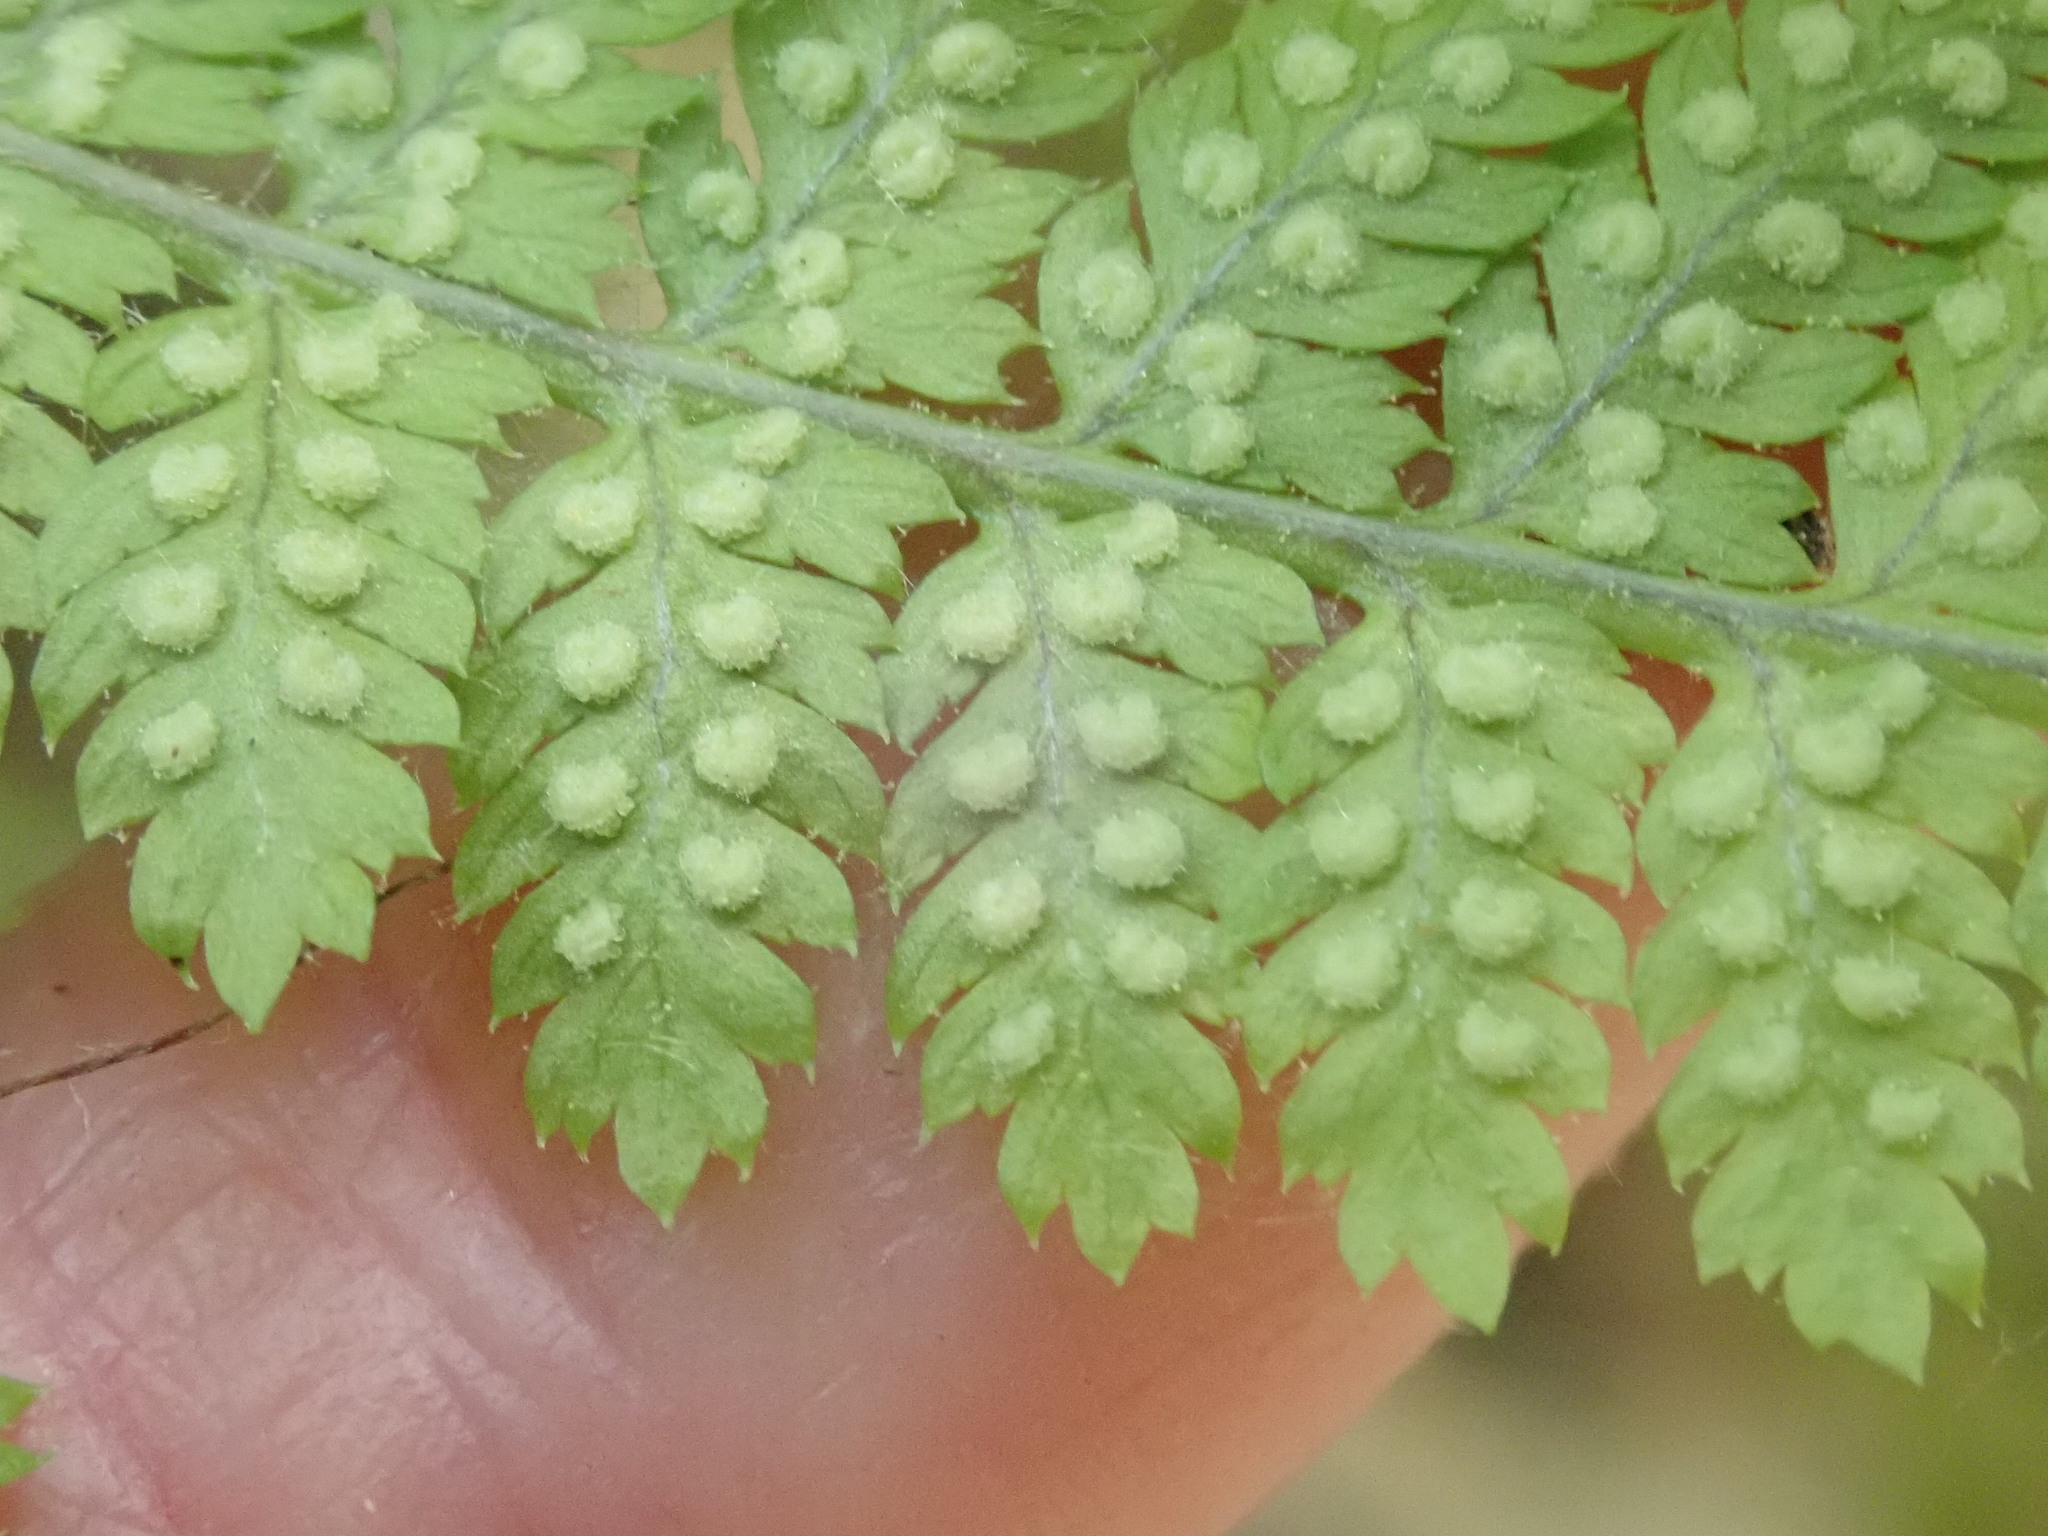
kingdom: Plantae
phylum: Tracheophyta
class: Polypodiopsida
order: Polypodiales
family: Dryopteridaceae
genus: Dryopteris
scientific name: Dryopteris intermedia
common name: Evergreen wood fern
